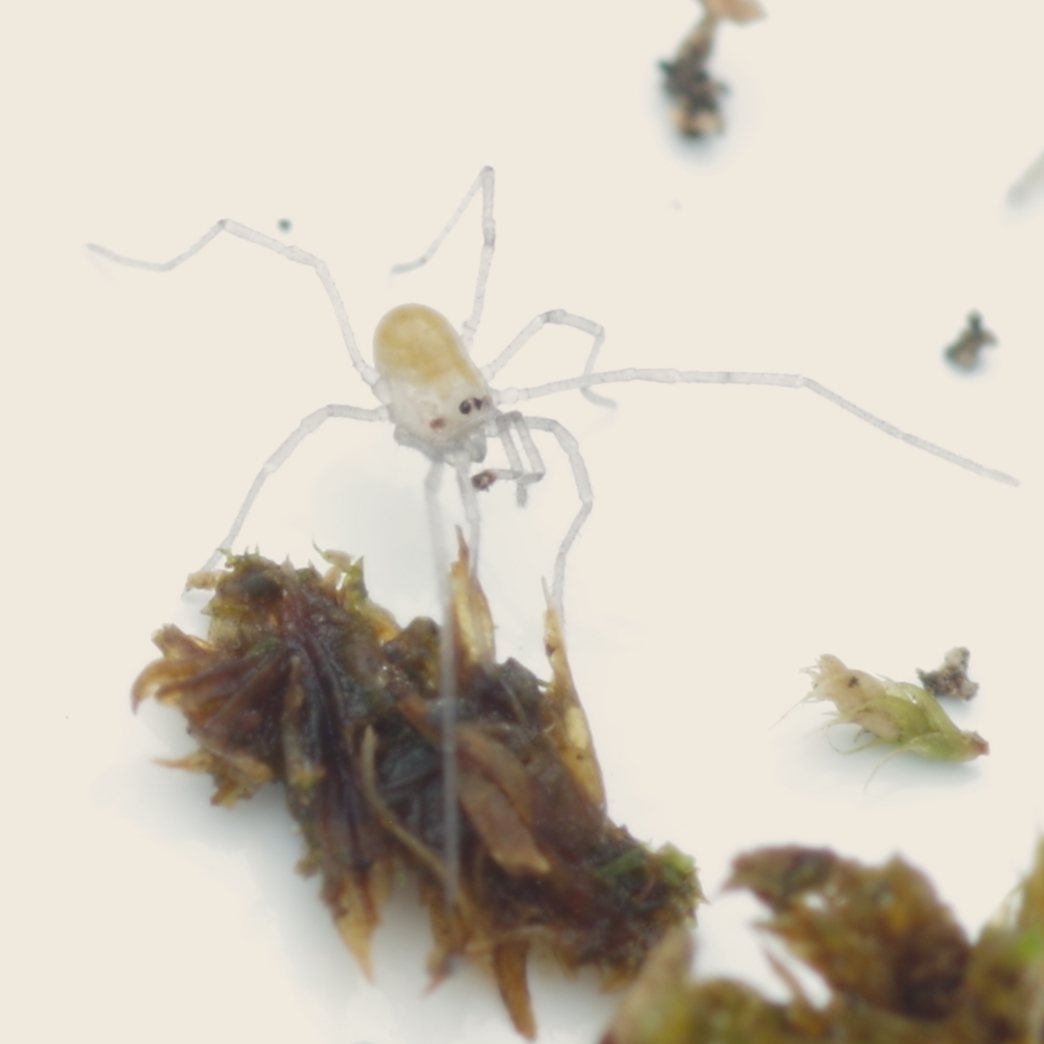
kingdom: Animalia
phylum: Arthropoda
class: Arachnida
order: Opiliones
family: Nemastomatidae
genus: Mitostoma
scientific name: Mitostoma chrysomelas
